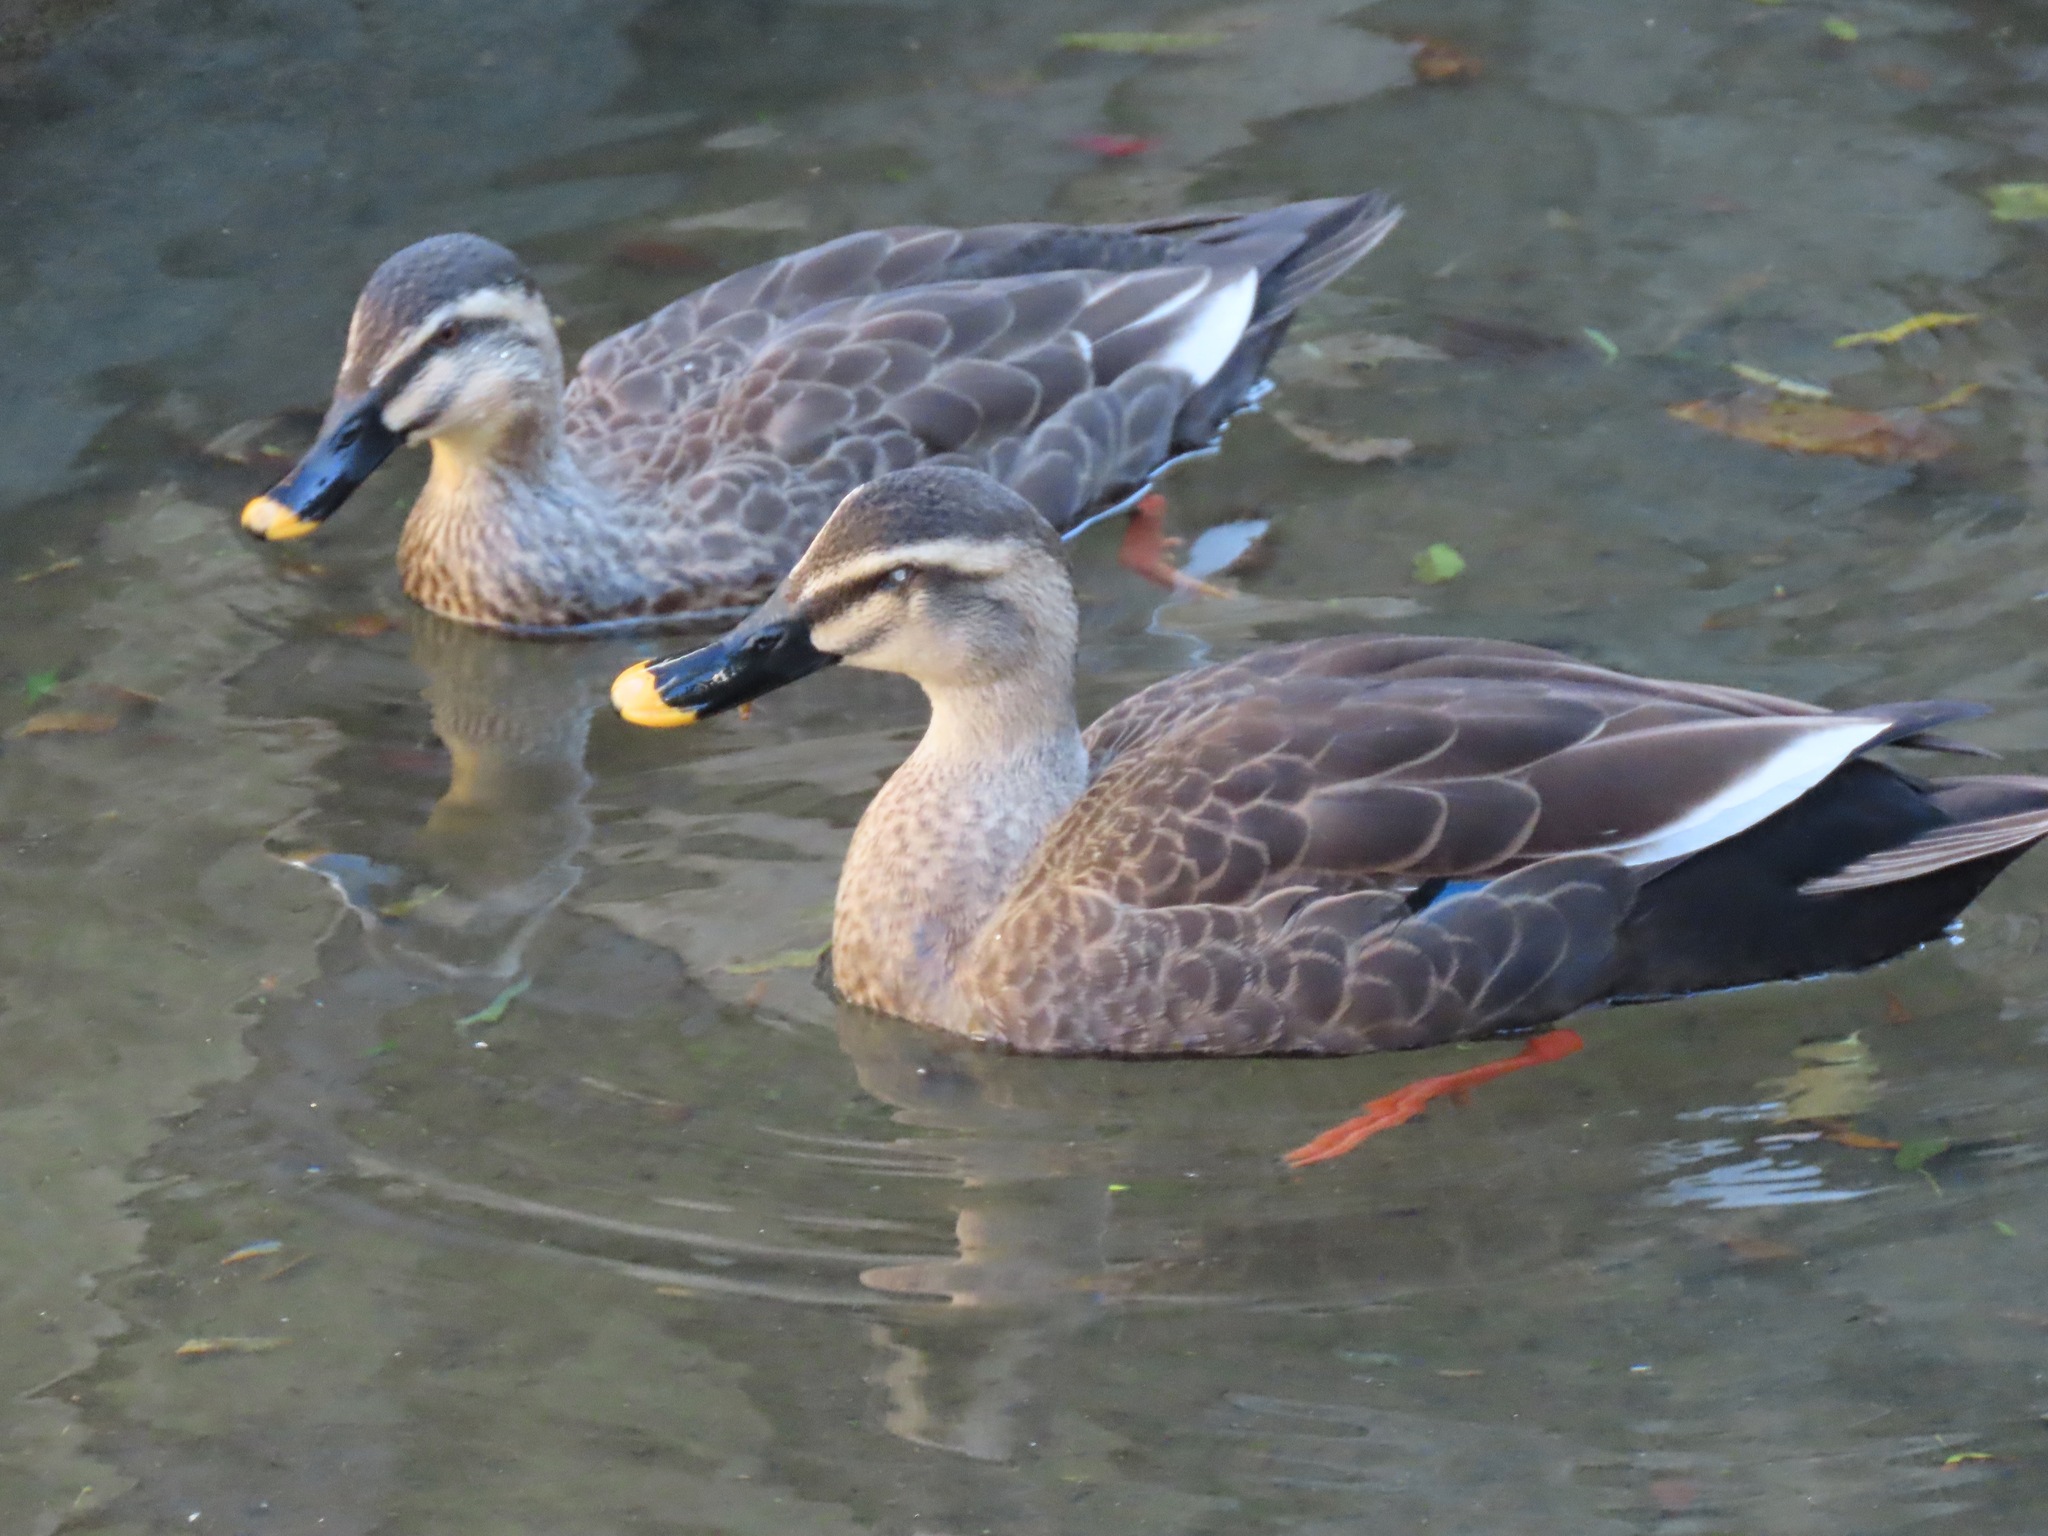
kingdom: Animalia
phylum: Chordata
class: Aves
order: Anseriformes
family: Anatidae
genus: Anas
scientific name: Anas zonorhyncha
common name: Eastern spot-billed duck
